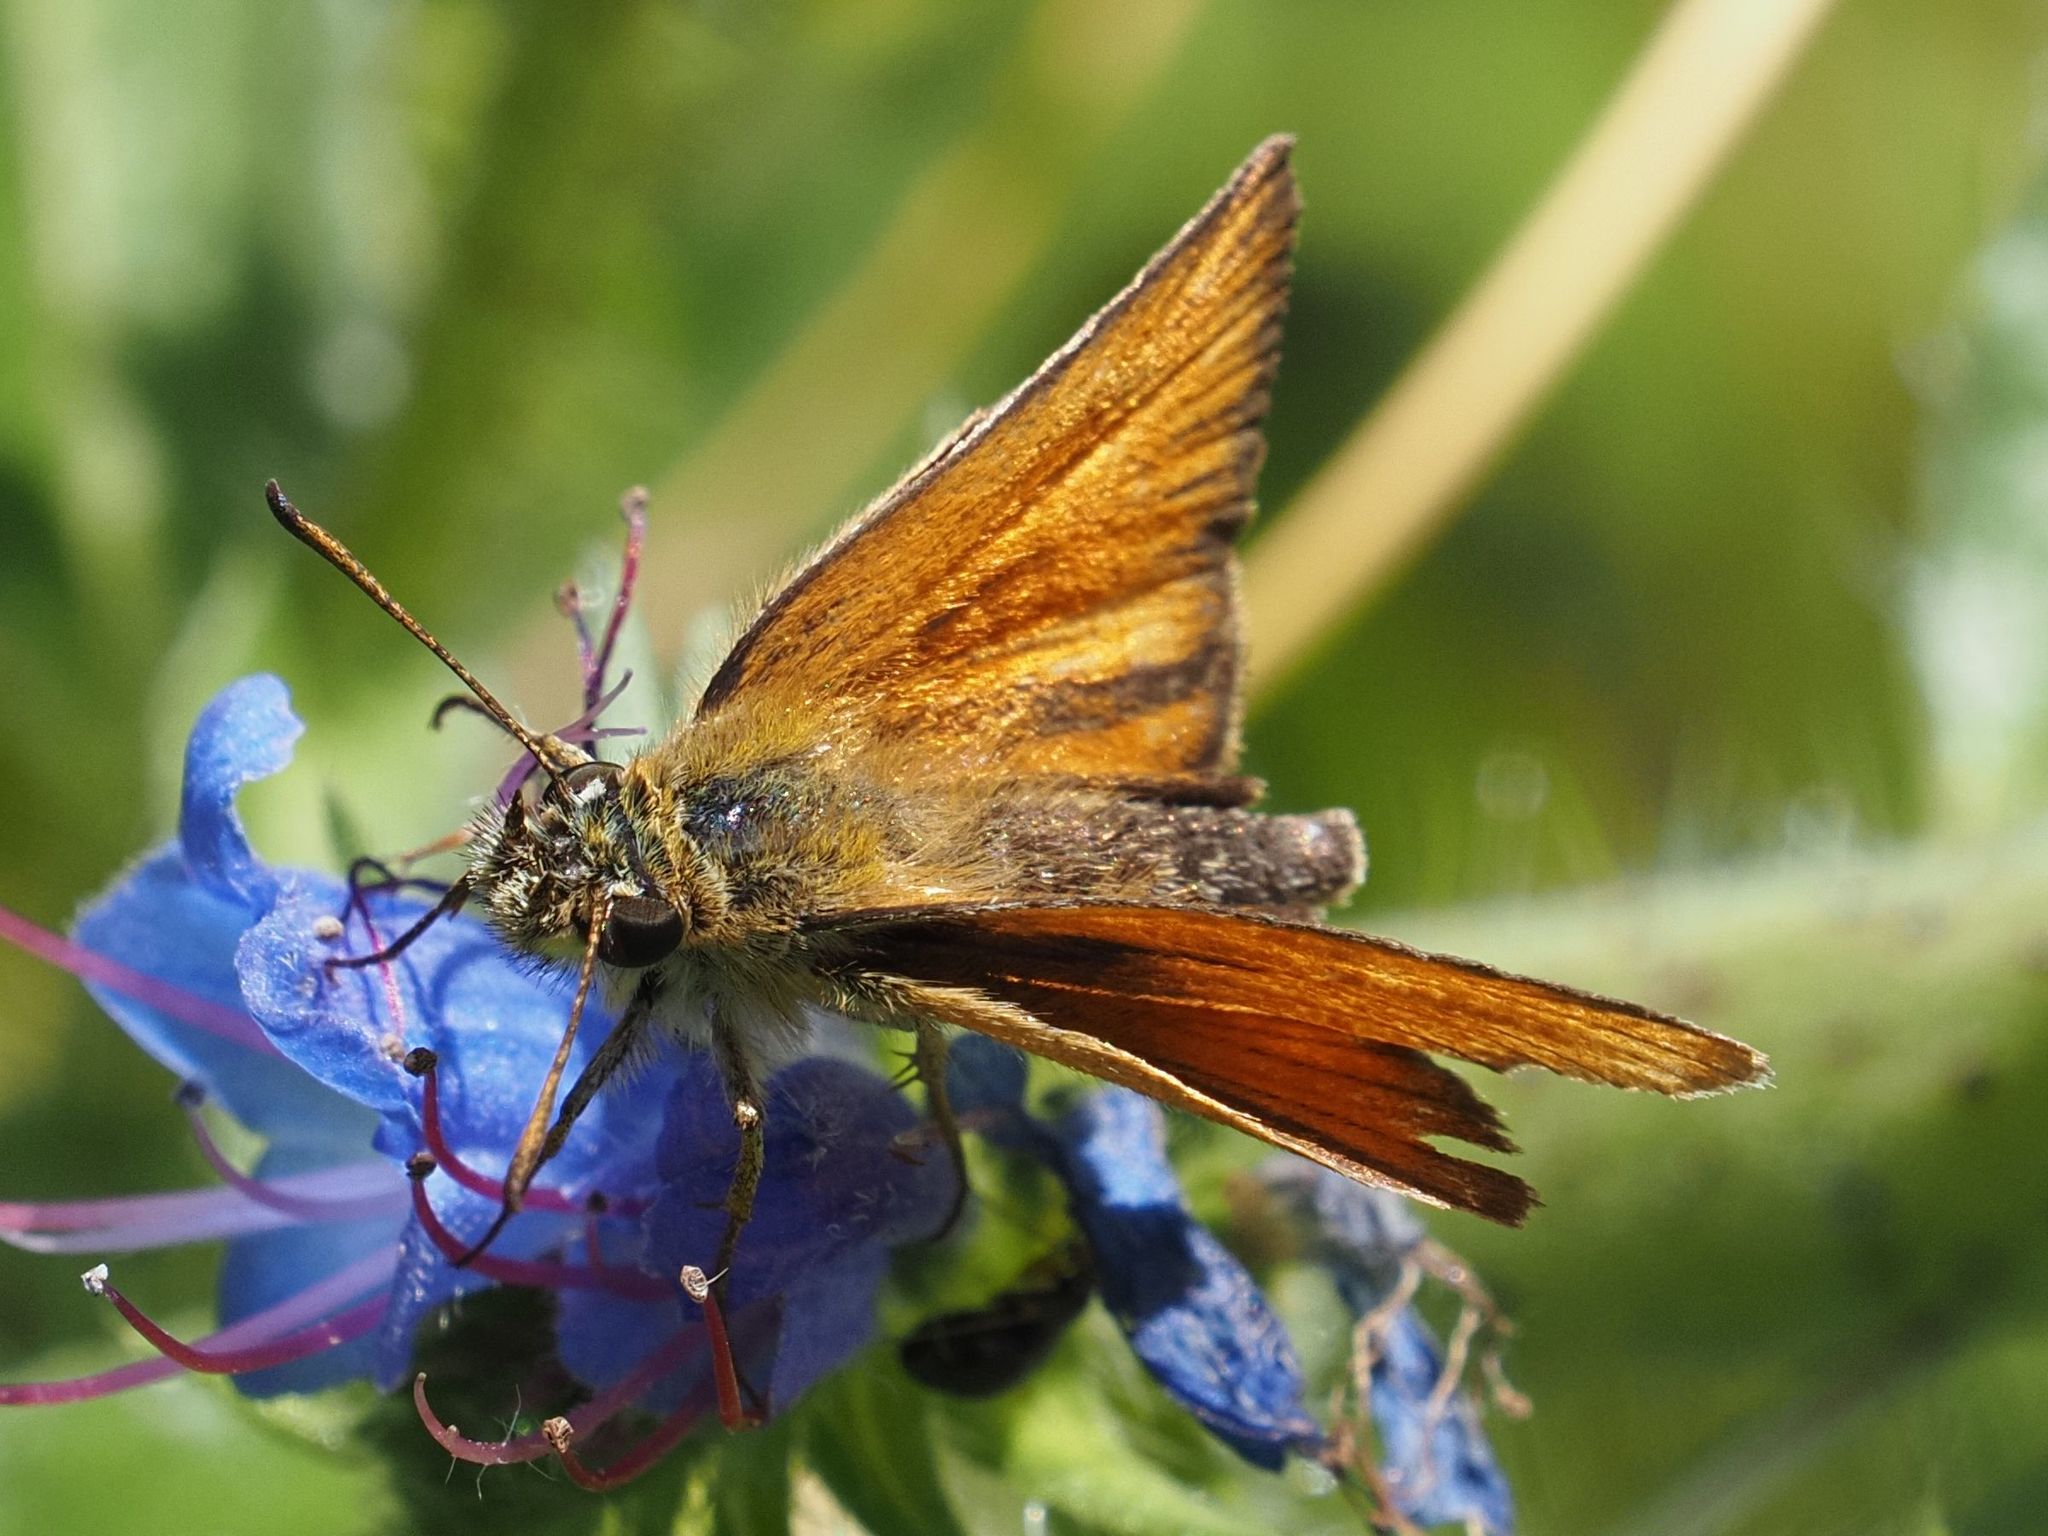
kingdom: Animalia
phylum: Arthropoda
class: Insecta
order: Lepidoptera
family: Hesperiidae
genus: Thymelicus
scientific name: Thymelicus lineola
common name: Essex skipper
